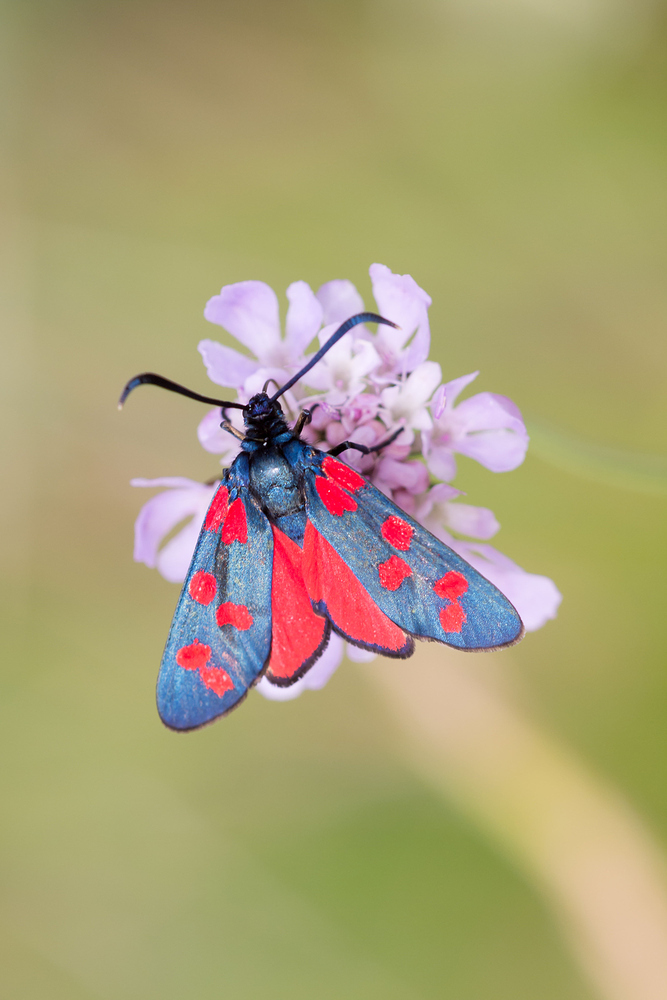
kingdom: Animalia
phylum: Arthropoda
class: Insecta
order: Lepidoptera
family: Zygaenidae
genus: Zygaena
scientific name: Zygaena transalpina
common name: Southern six spot burnet
